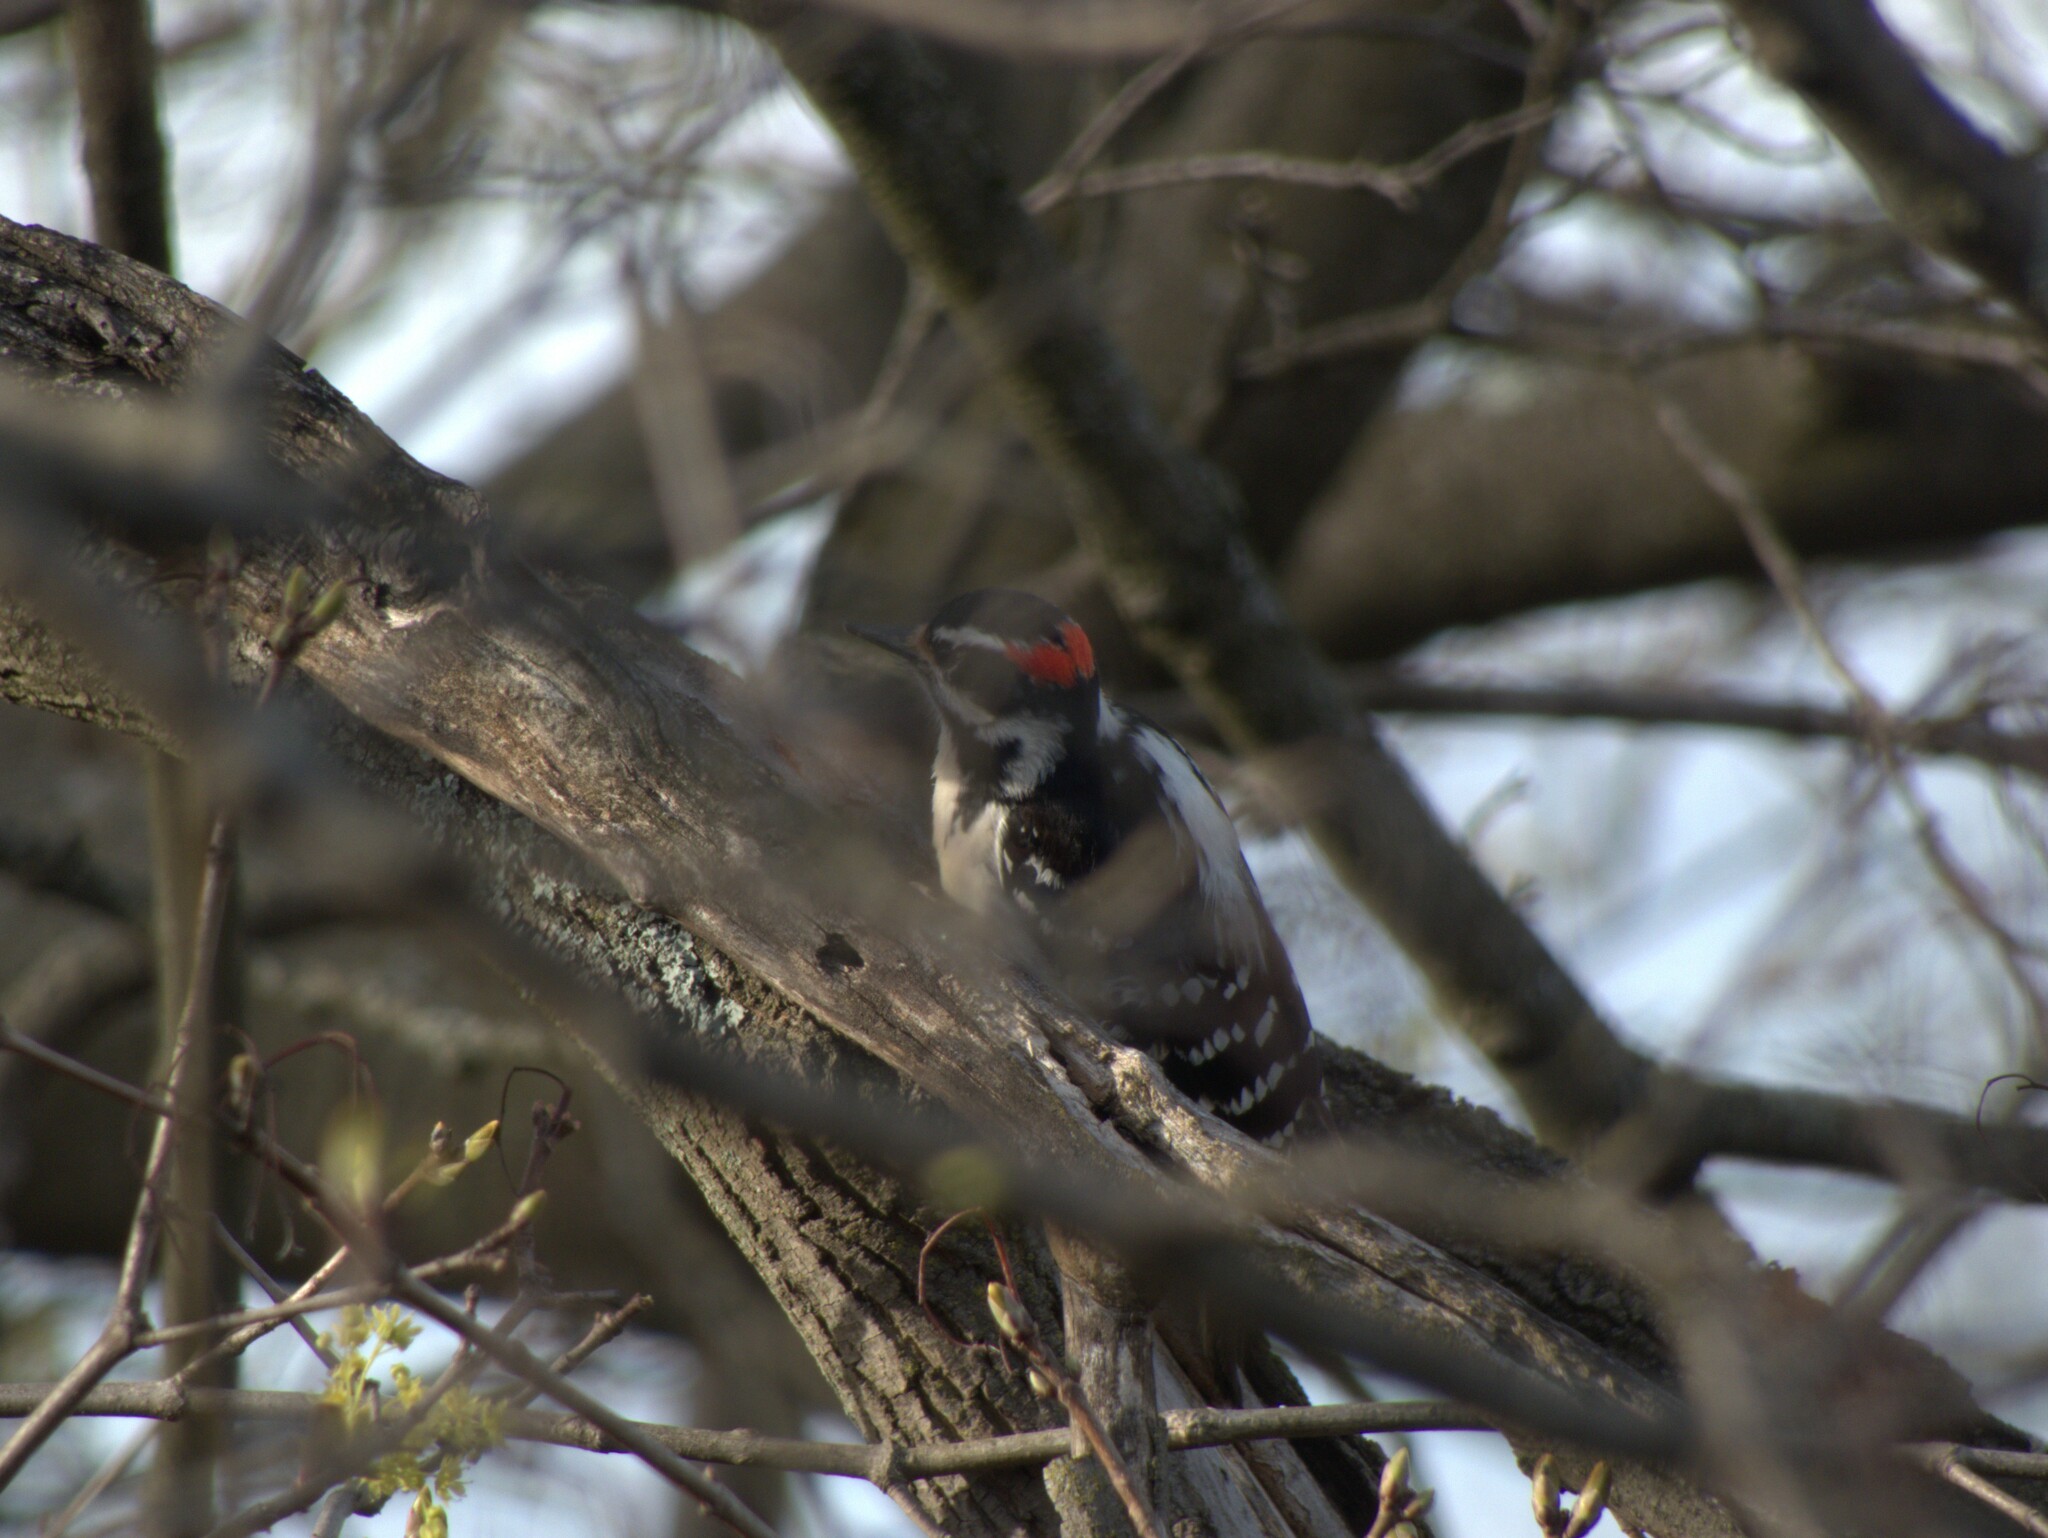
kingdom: Animalia
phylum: Chordata
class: Aves
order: Piciformes
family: Picidae
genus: Leuconotopicus
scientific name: Leuconotopicus villosus
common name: Hairy woodpecker
